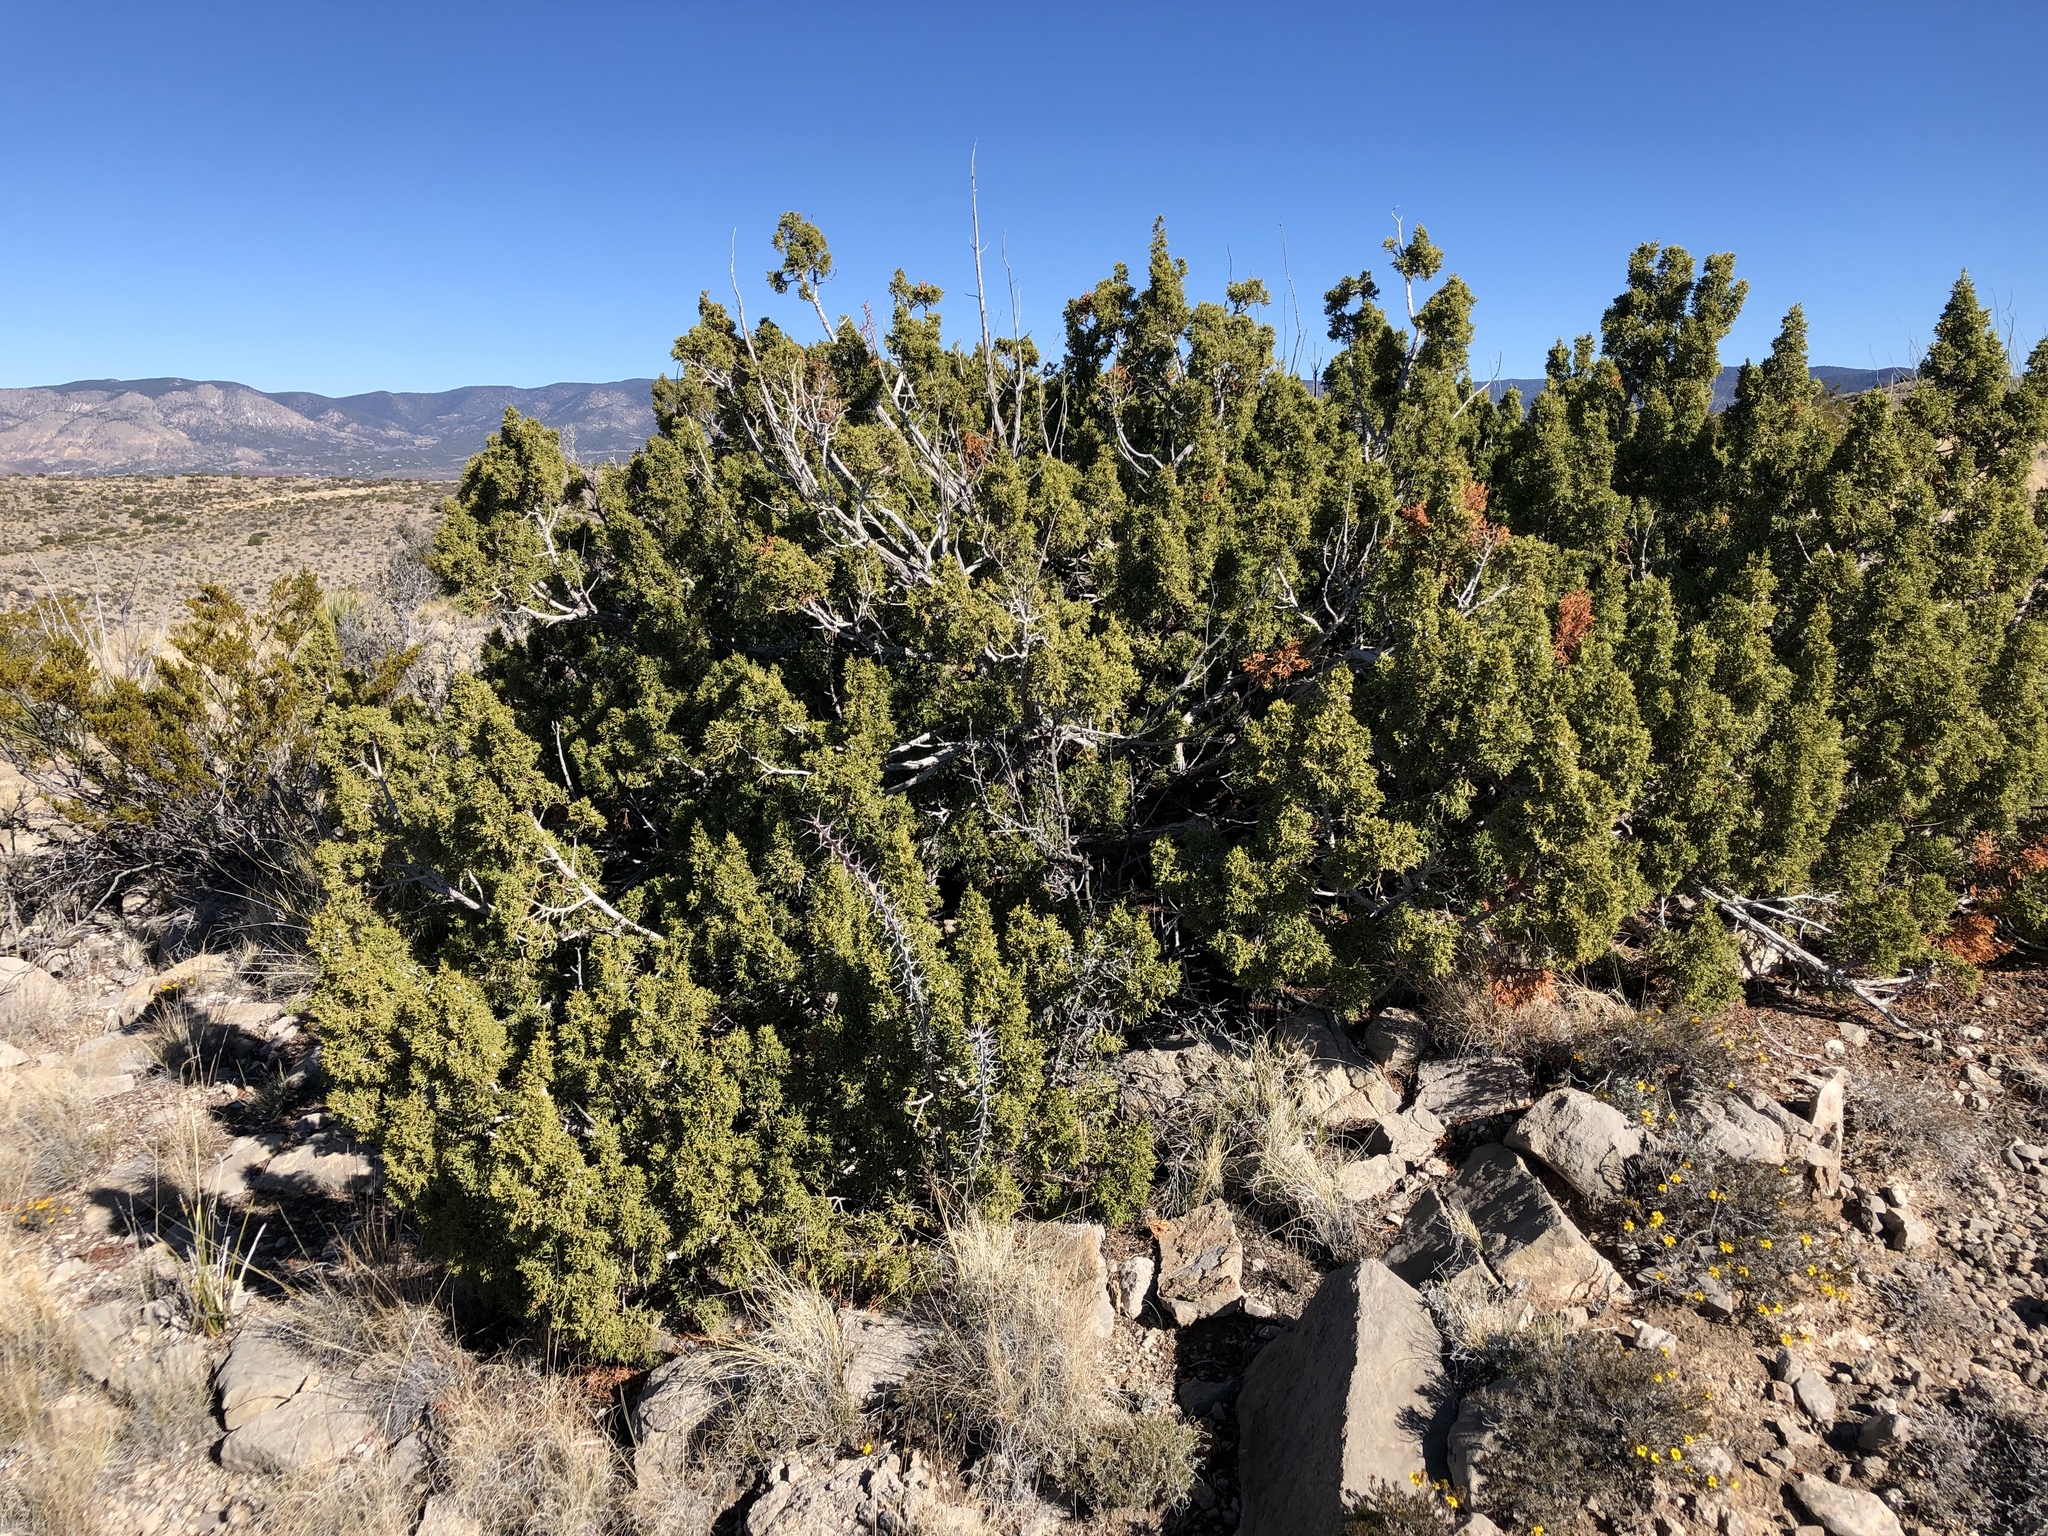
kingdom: Plantae
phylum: Tracheophyta
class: Pinopsida
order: Pinales
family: Cupressaceae
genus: Juniperus
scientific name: Juniperus monosperma
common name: One-seed juniper
